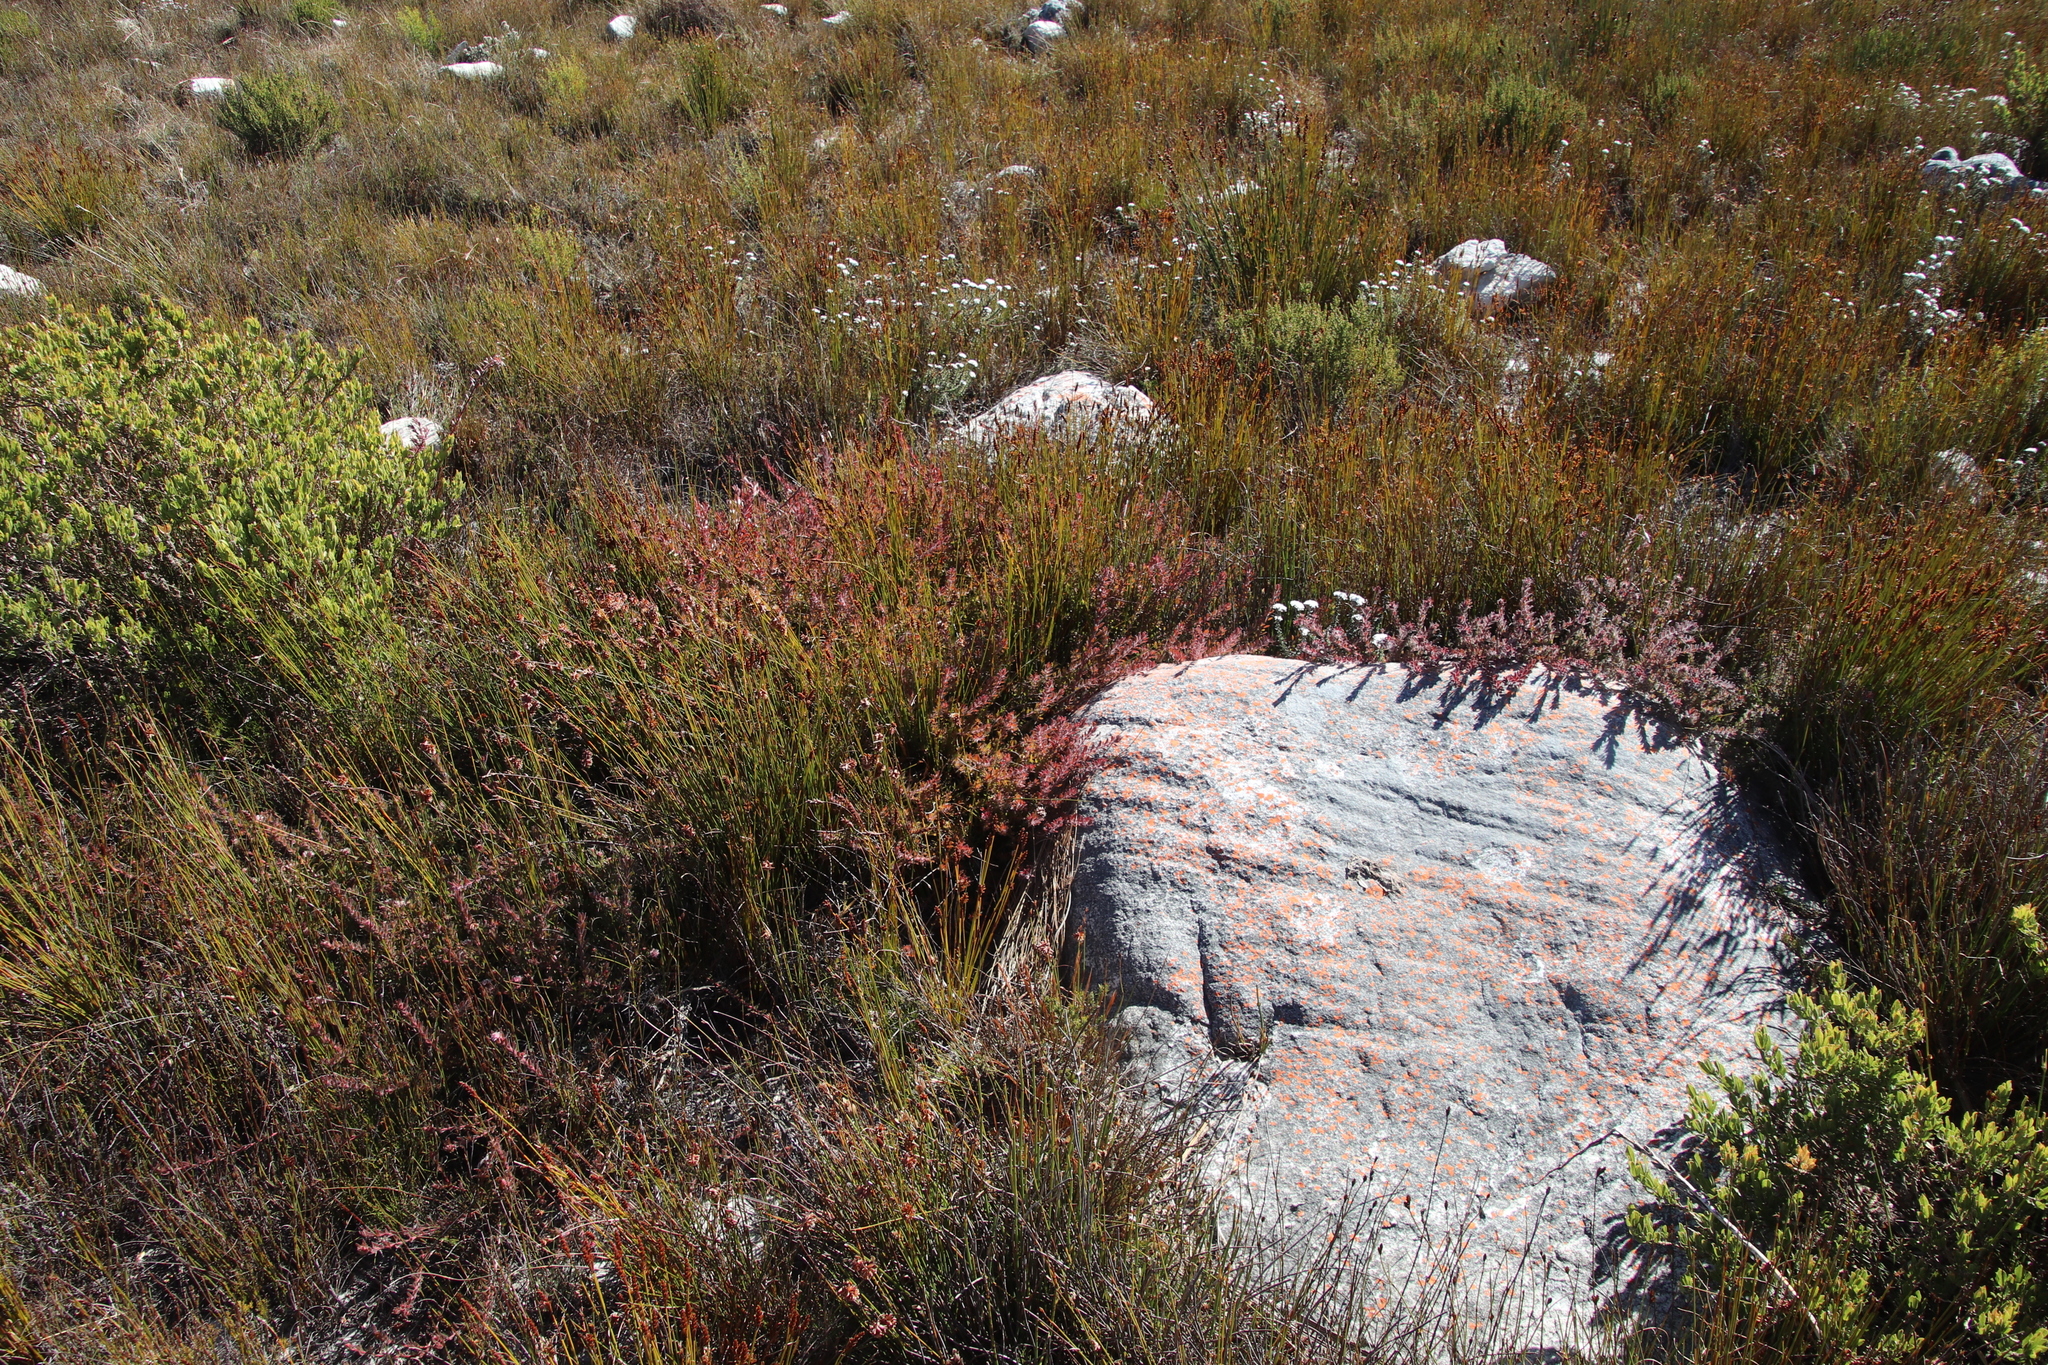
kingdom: Plantae
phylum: Tracheophyta
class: Magnoliopsida
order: Proteales
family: Proteaceae
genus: Diastella
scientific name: Diastella divaricata
